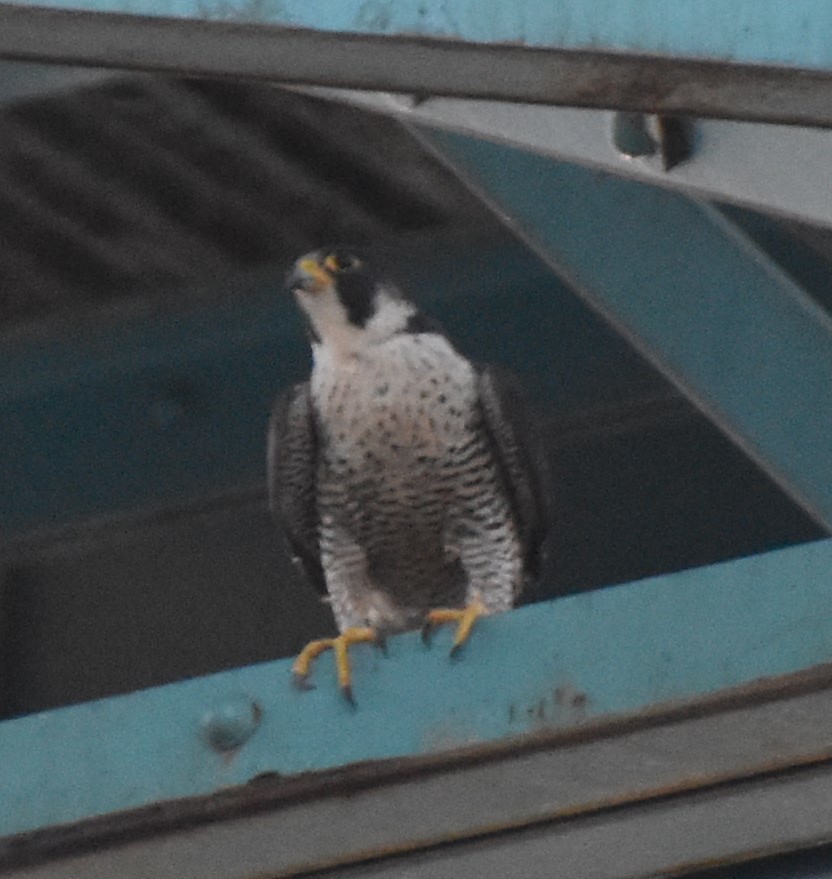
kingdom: Animalia
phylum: Chordata
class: Aves
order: Falconiformes
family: Falconidae
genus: Falco
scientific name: Falco peregrinus
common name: Peregrine falcon
